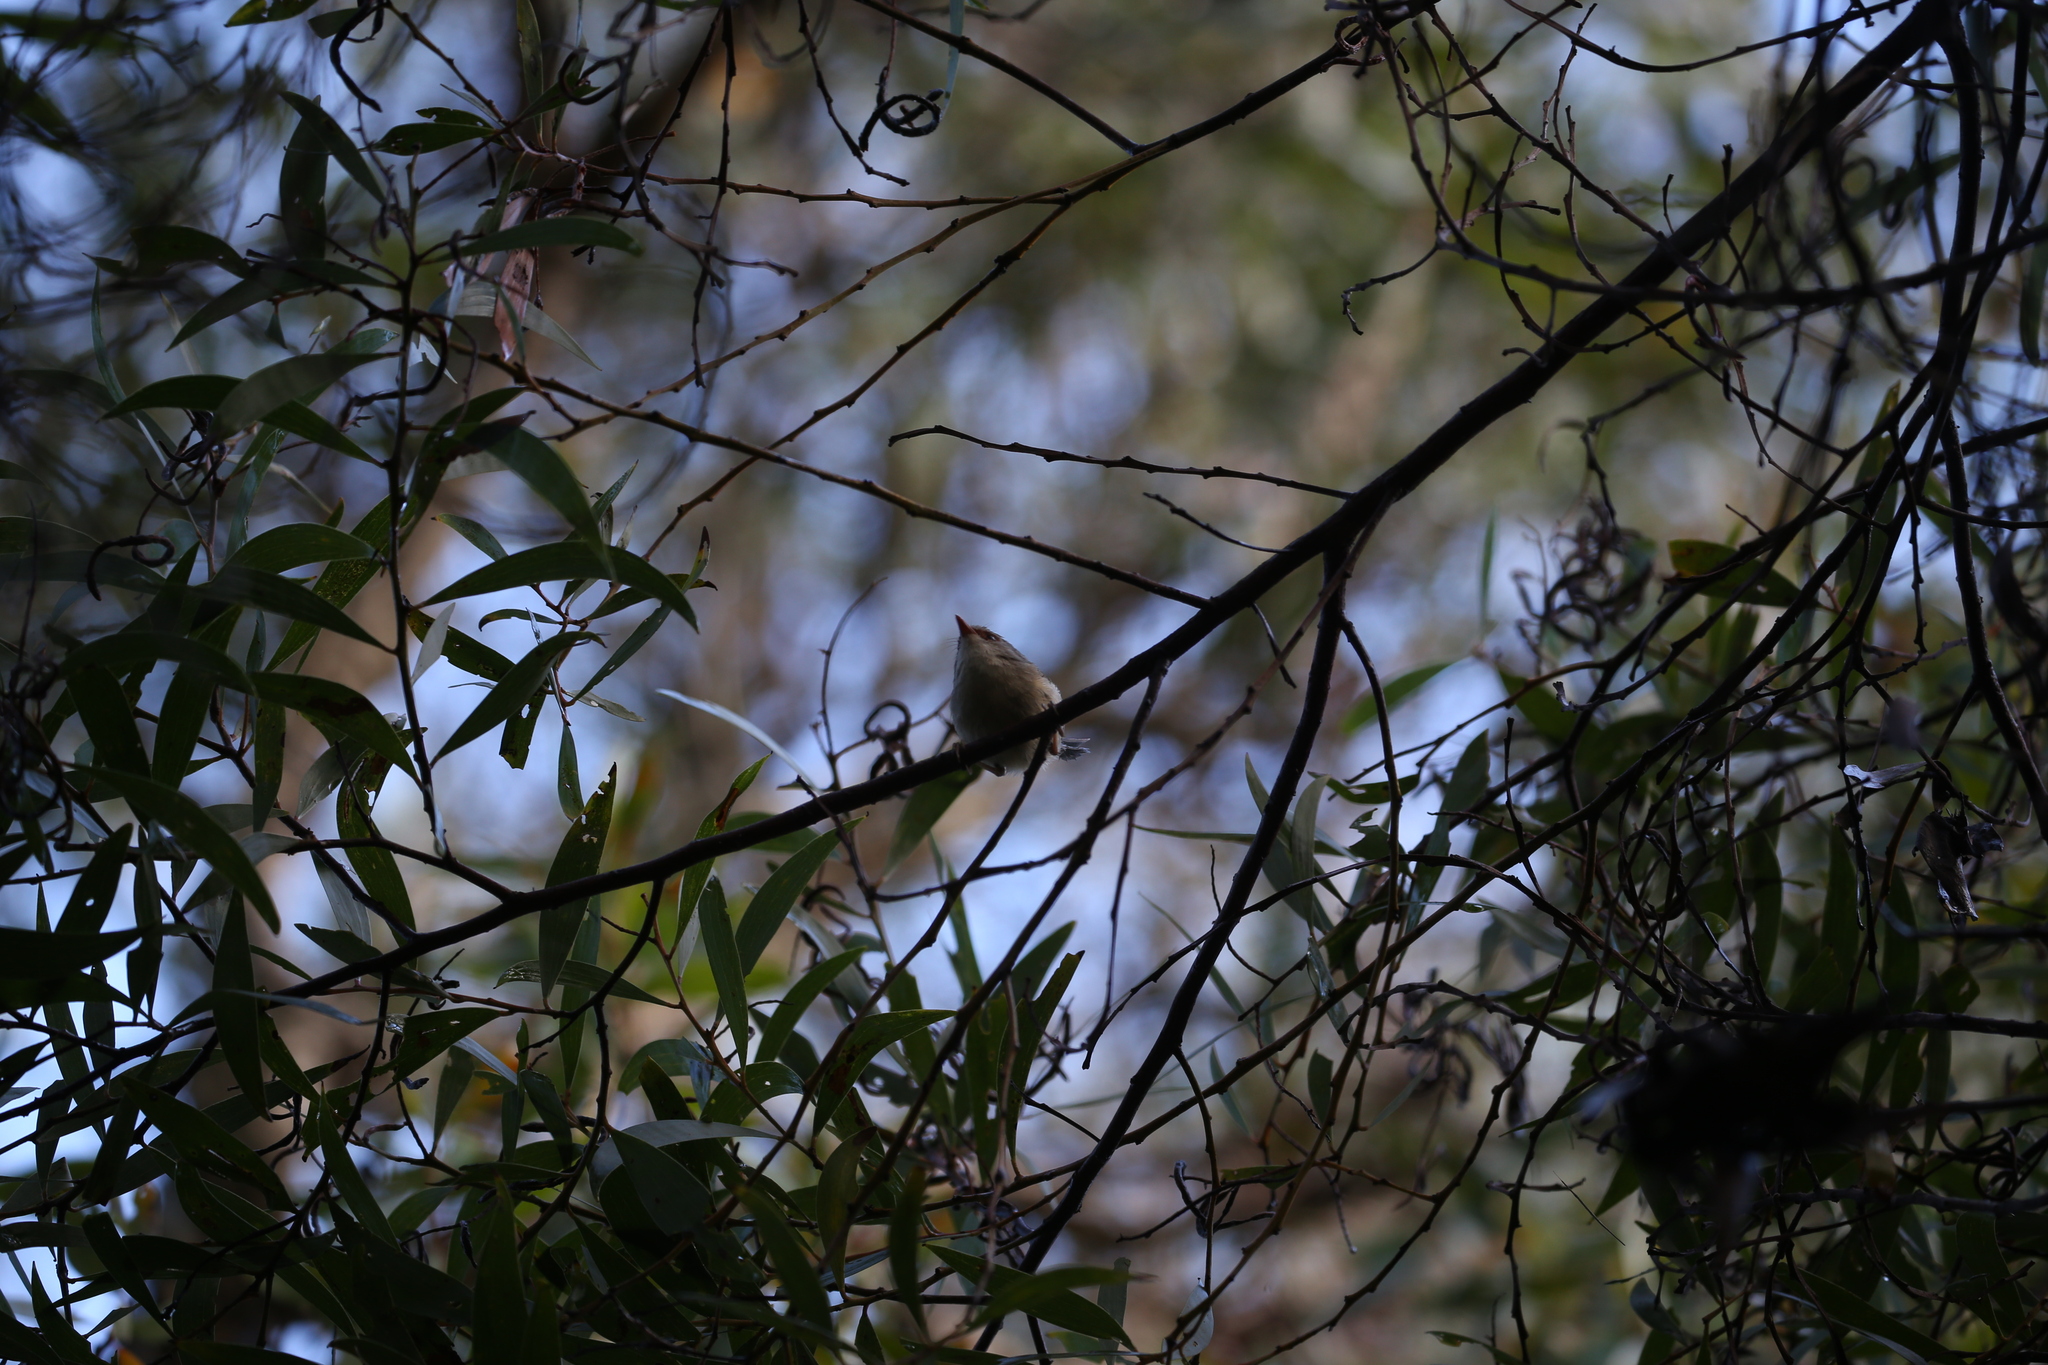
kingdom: Animalia
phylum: Chordata
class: Aves
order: Passeriformes
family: Maluridae
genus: Malurus
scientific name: Malurus lamberti
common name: Variegated fairywren
